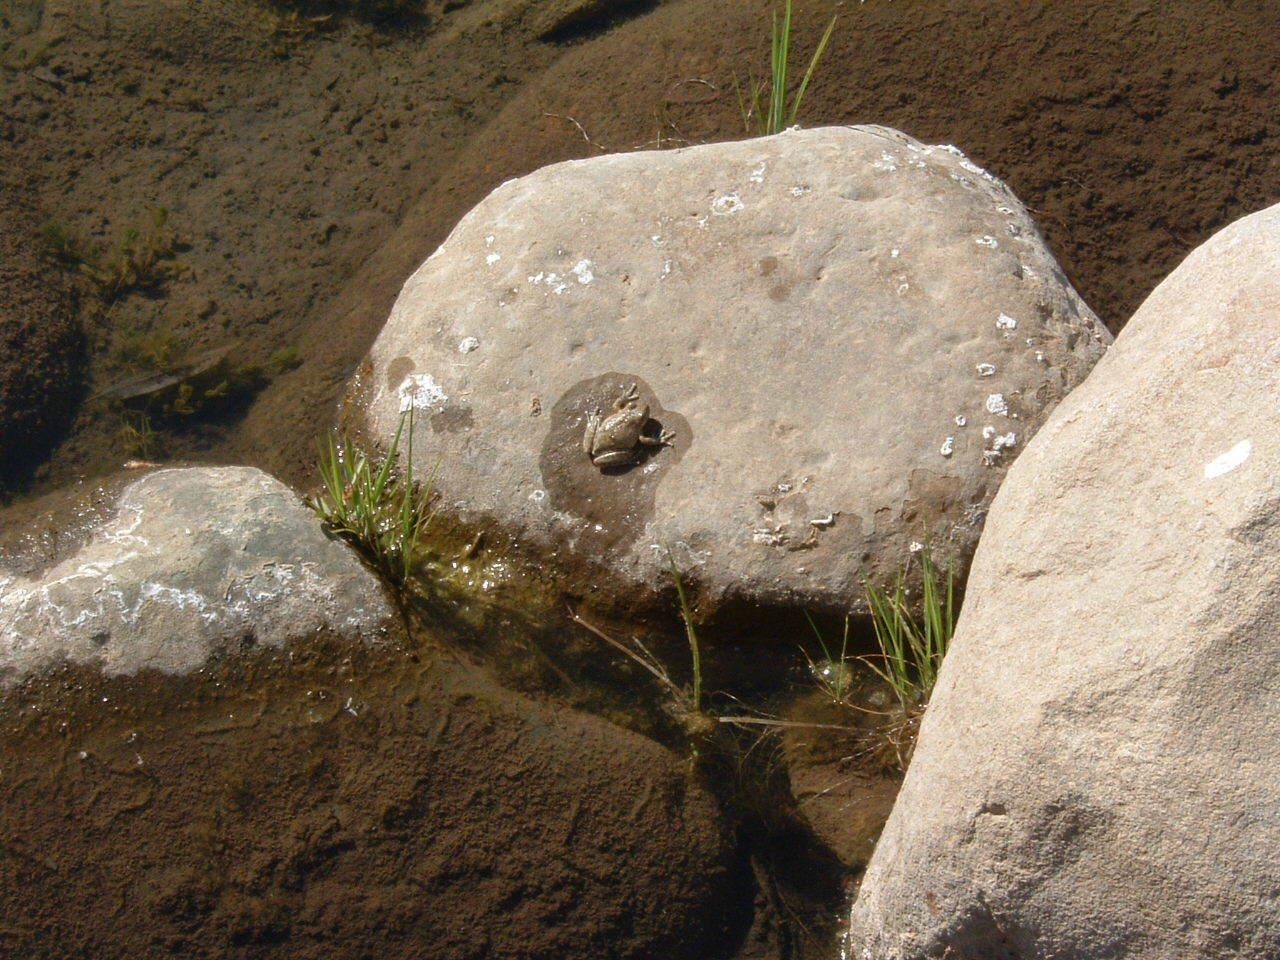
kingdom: Animalia
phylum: Chordata
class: Amphibia
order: Anura
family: Hylidae
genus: Pseudacris
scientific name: Pseudacris cadaverina
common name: California chorus frog
